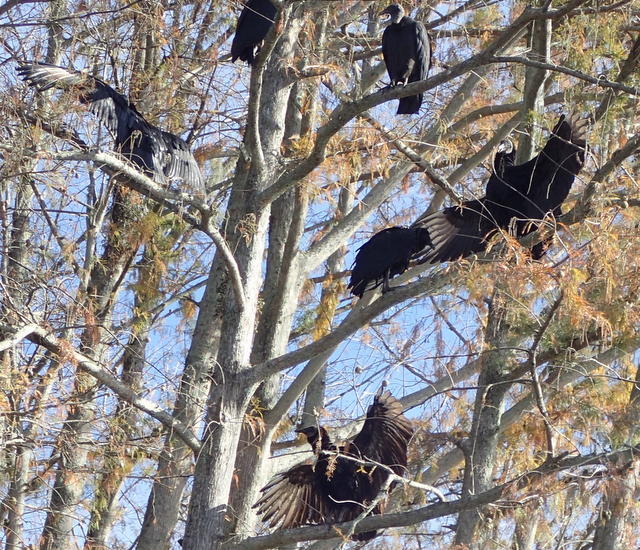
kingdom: Animalia
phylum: Chordata
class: Aves
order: Accipitriformes
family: Cathartidae
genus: Coragyps
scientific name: Coragyps atratus
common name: Black vulture
